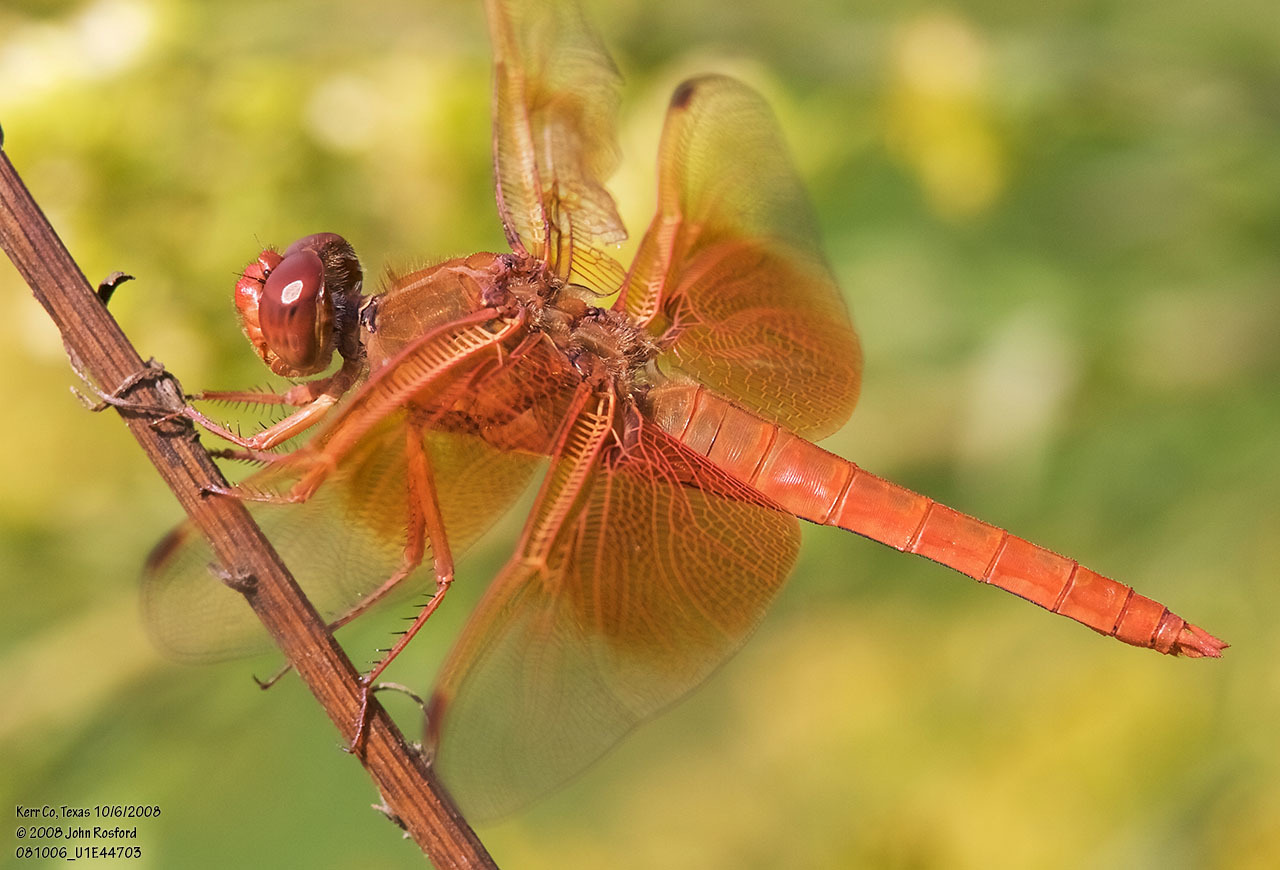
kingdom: Animalia
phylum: Arthropoda
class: Insecta
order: Odonata
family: Libellulidae
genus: Libellula
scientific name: Libellula saturata
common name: Flame skimmer
